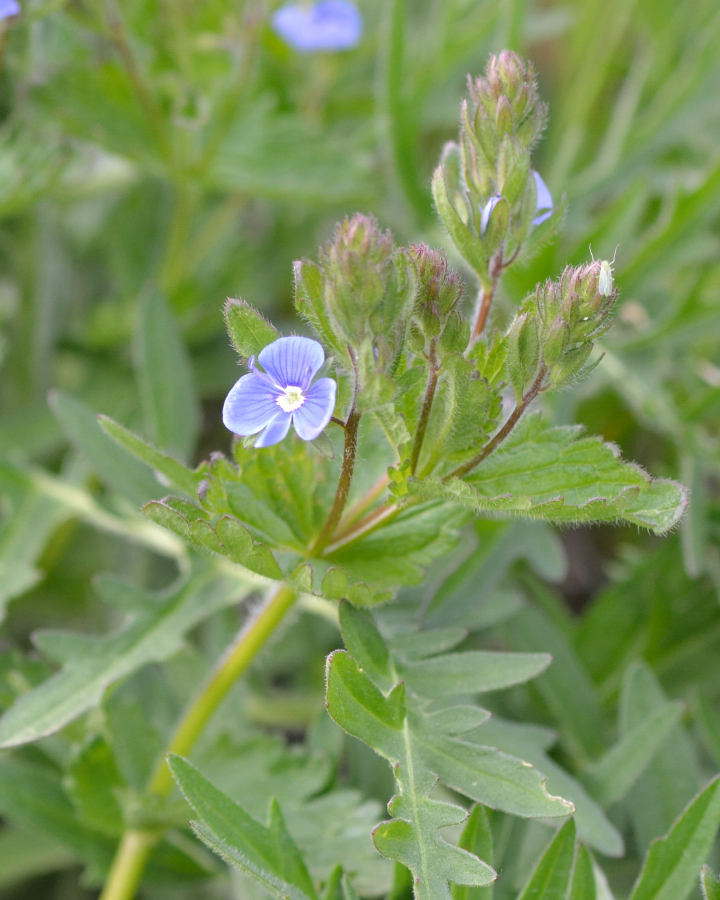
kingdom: Plantae
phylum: Tracheophyta
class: Magnoliopsida
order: Lamiales
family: Plantaginaceae
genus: Veronica
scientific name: Veronica chamaedrys
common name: Germander speedwell
